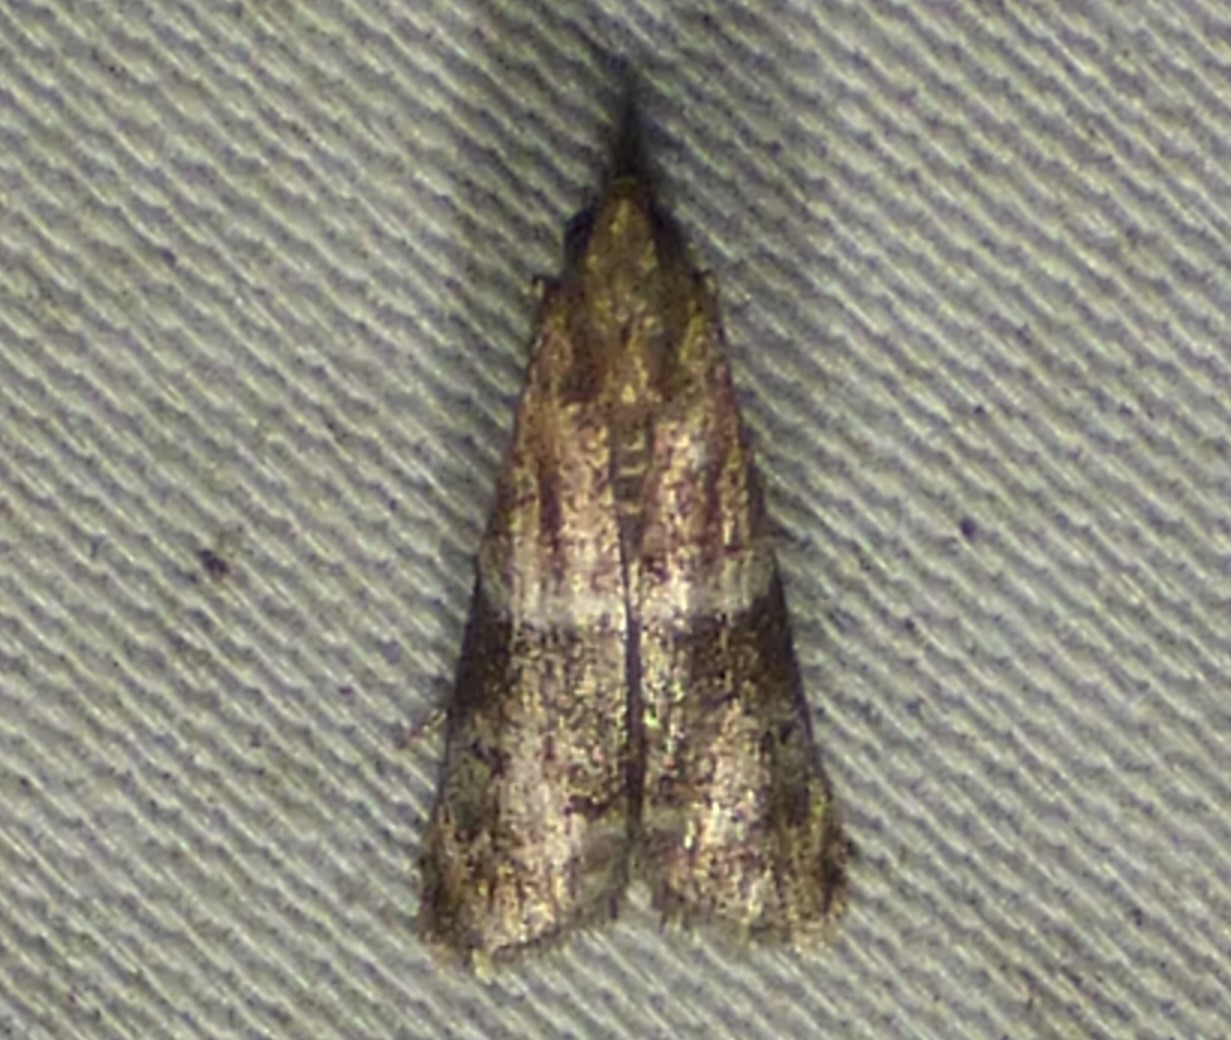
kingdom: Animalia
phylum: Arthropoda
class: Insecta
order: Lepidoptera
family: Pyralidae
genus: Moodna
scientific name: Moodna ostrinella
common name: Darker moodna moth
